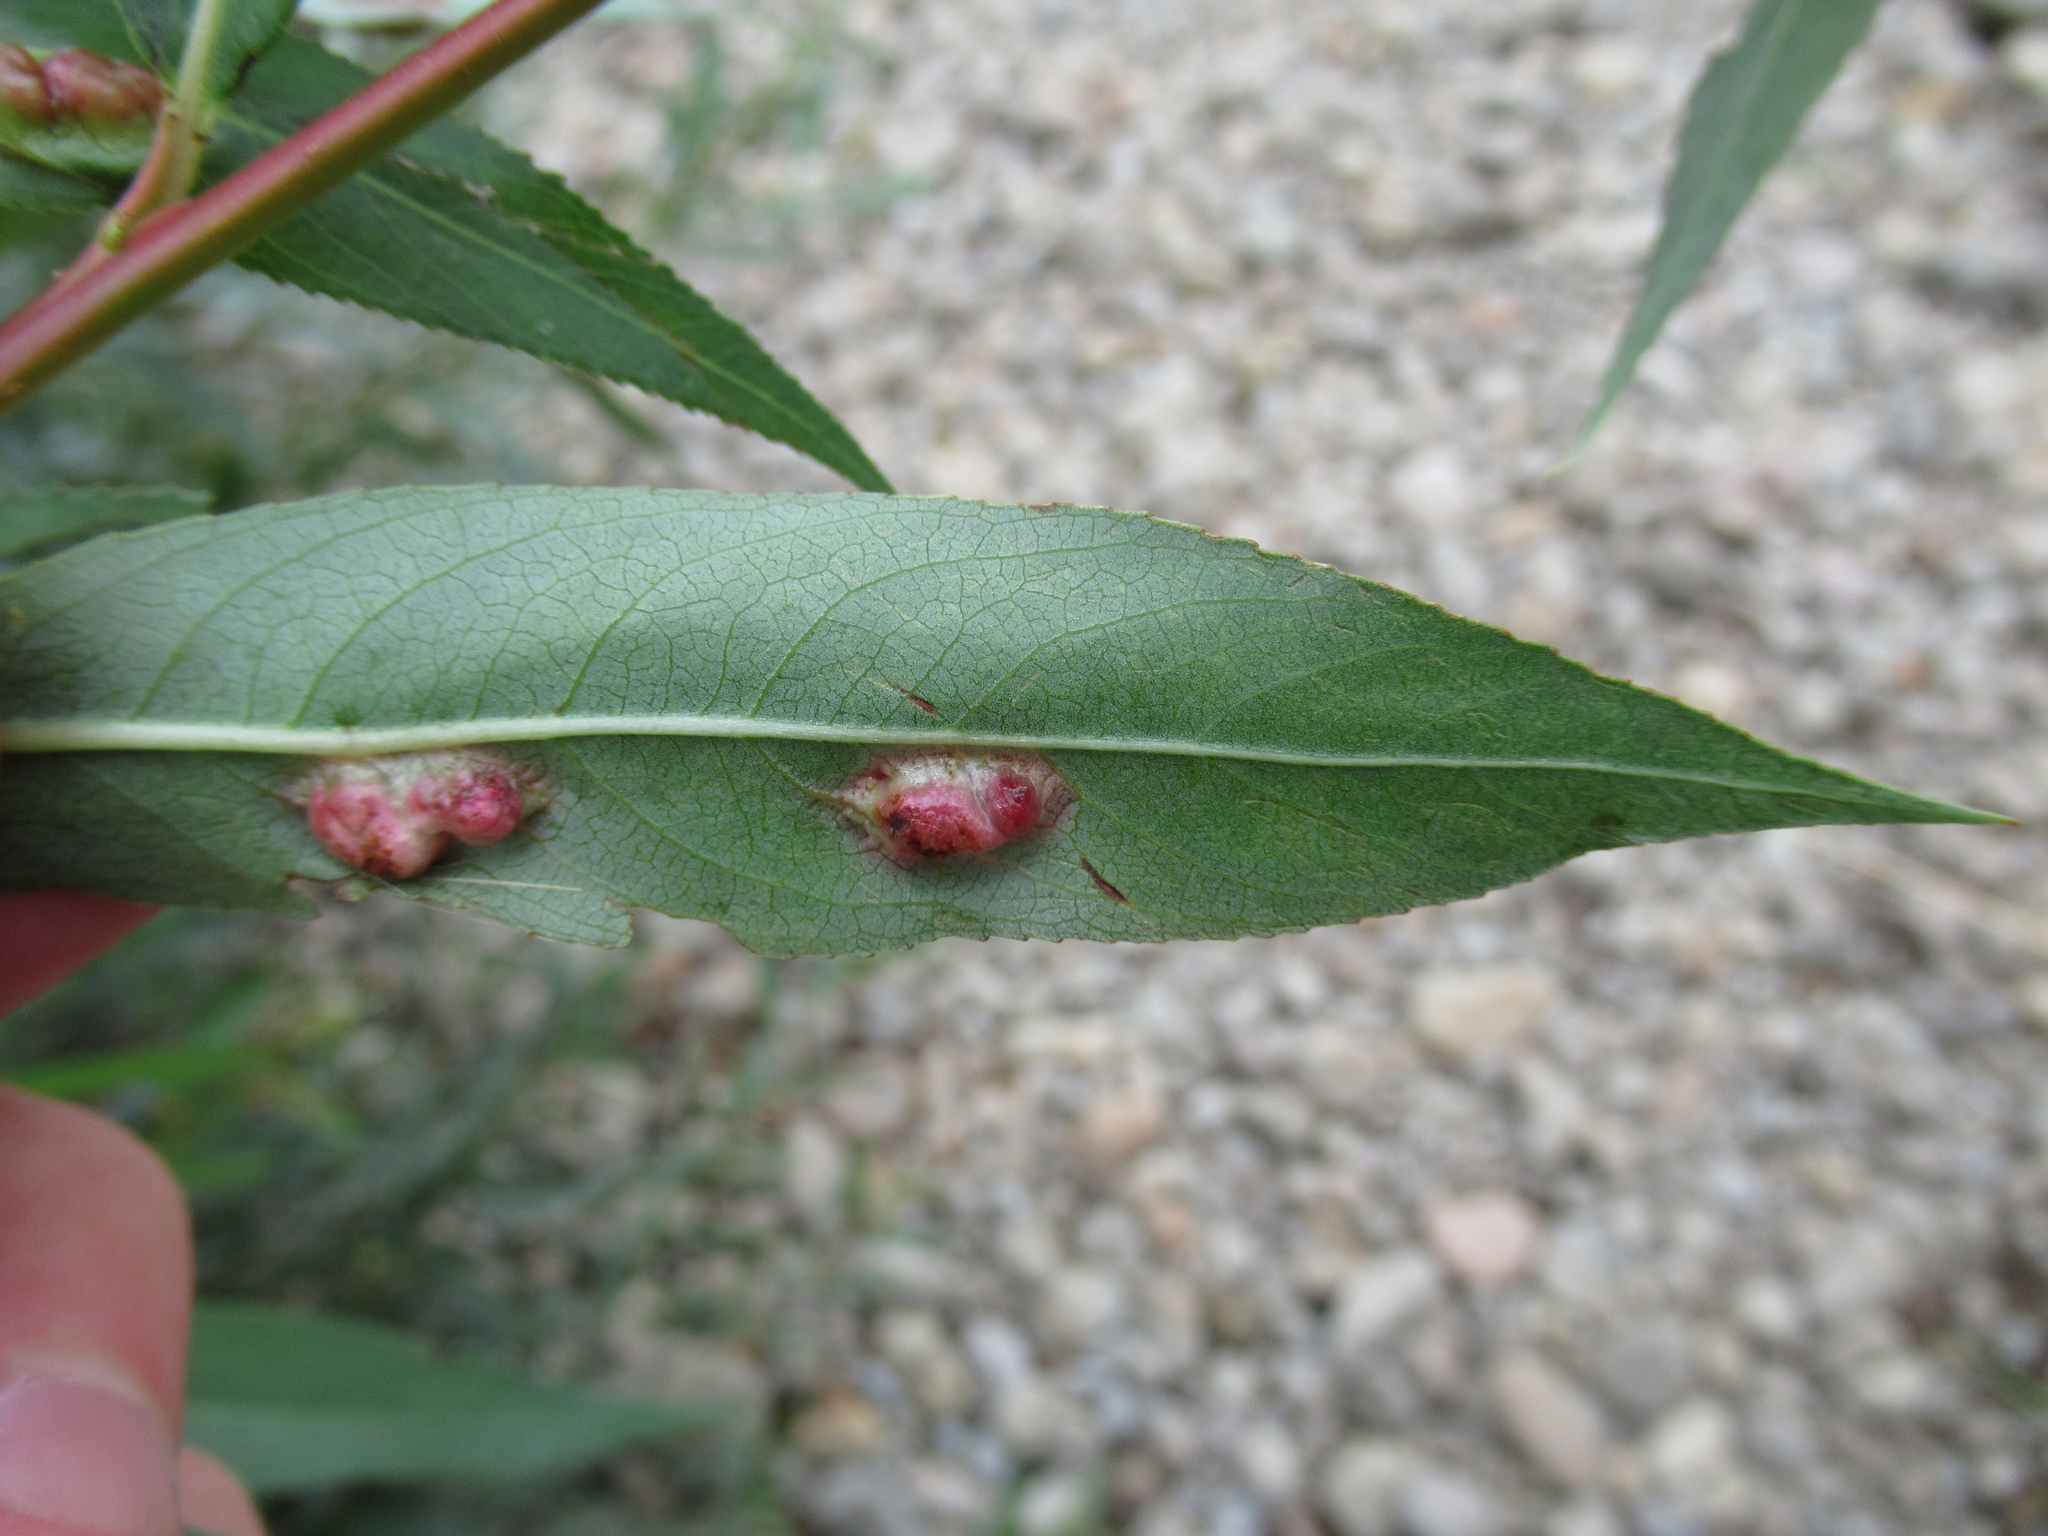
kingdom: Animalia
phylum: Arthropoda
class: Insecta
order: Hymenoptera
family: Tenthredinidae
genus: Pontania
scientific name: Pontania proxima
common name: Common sawfly
